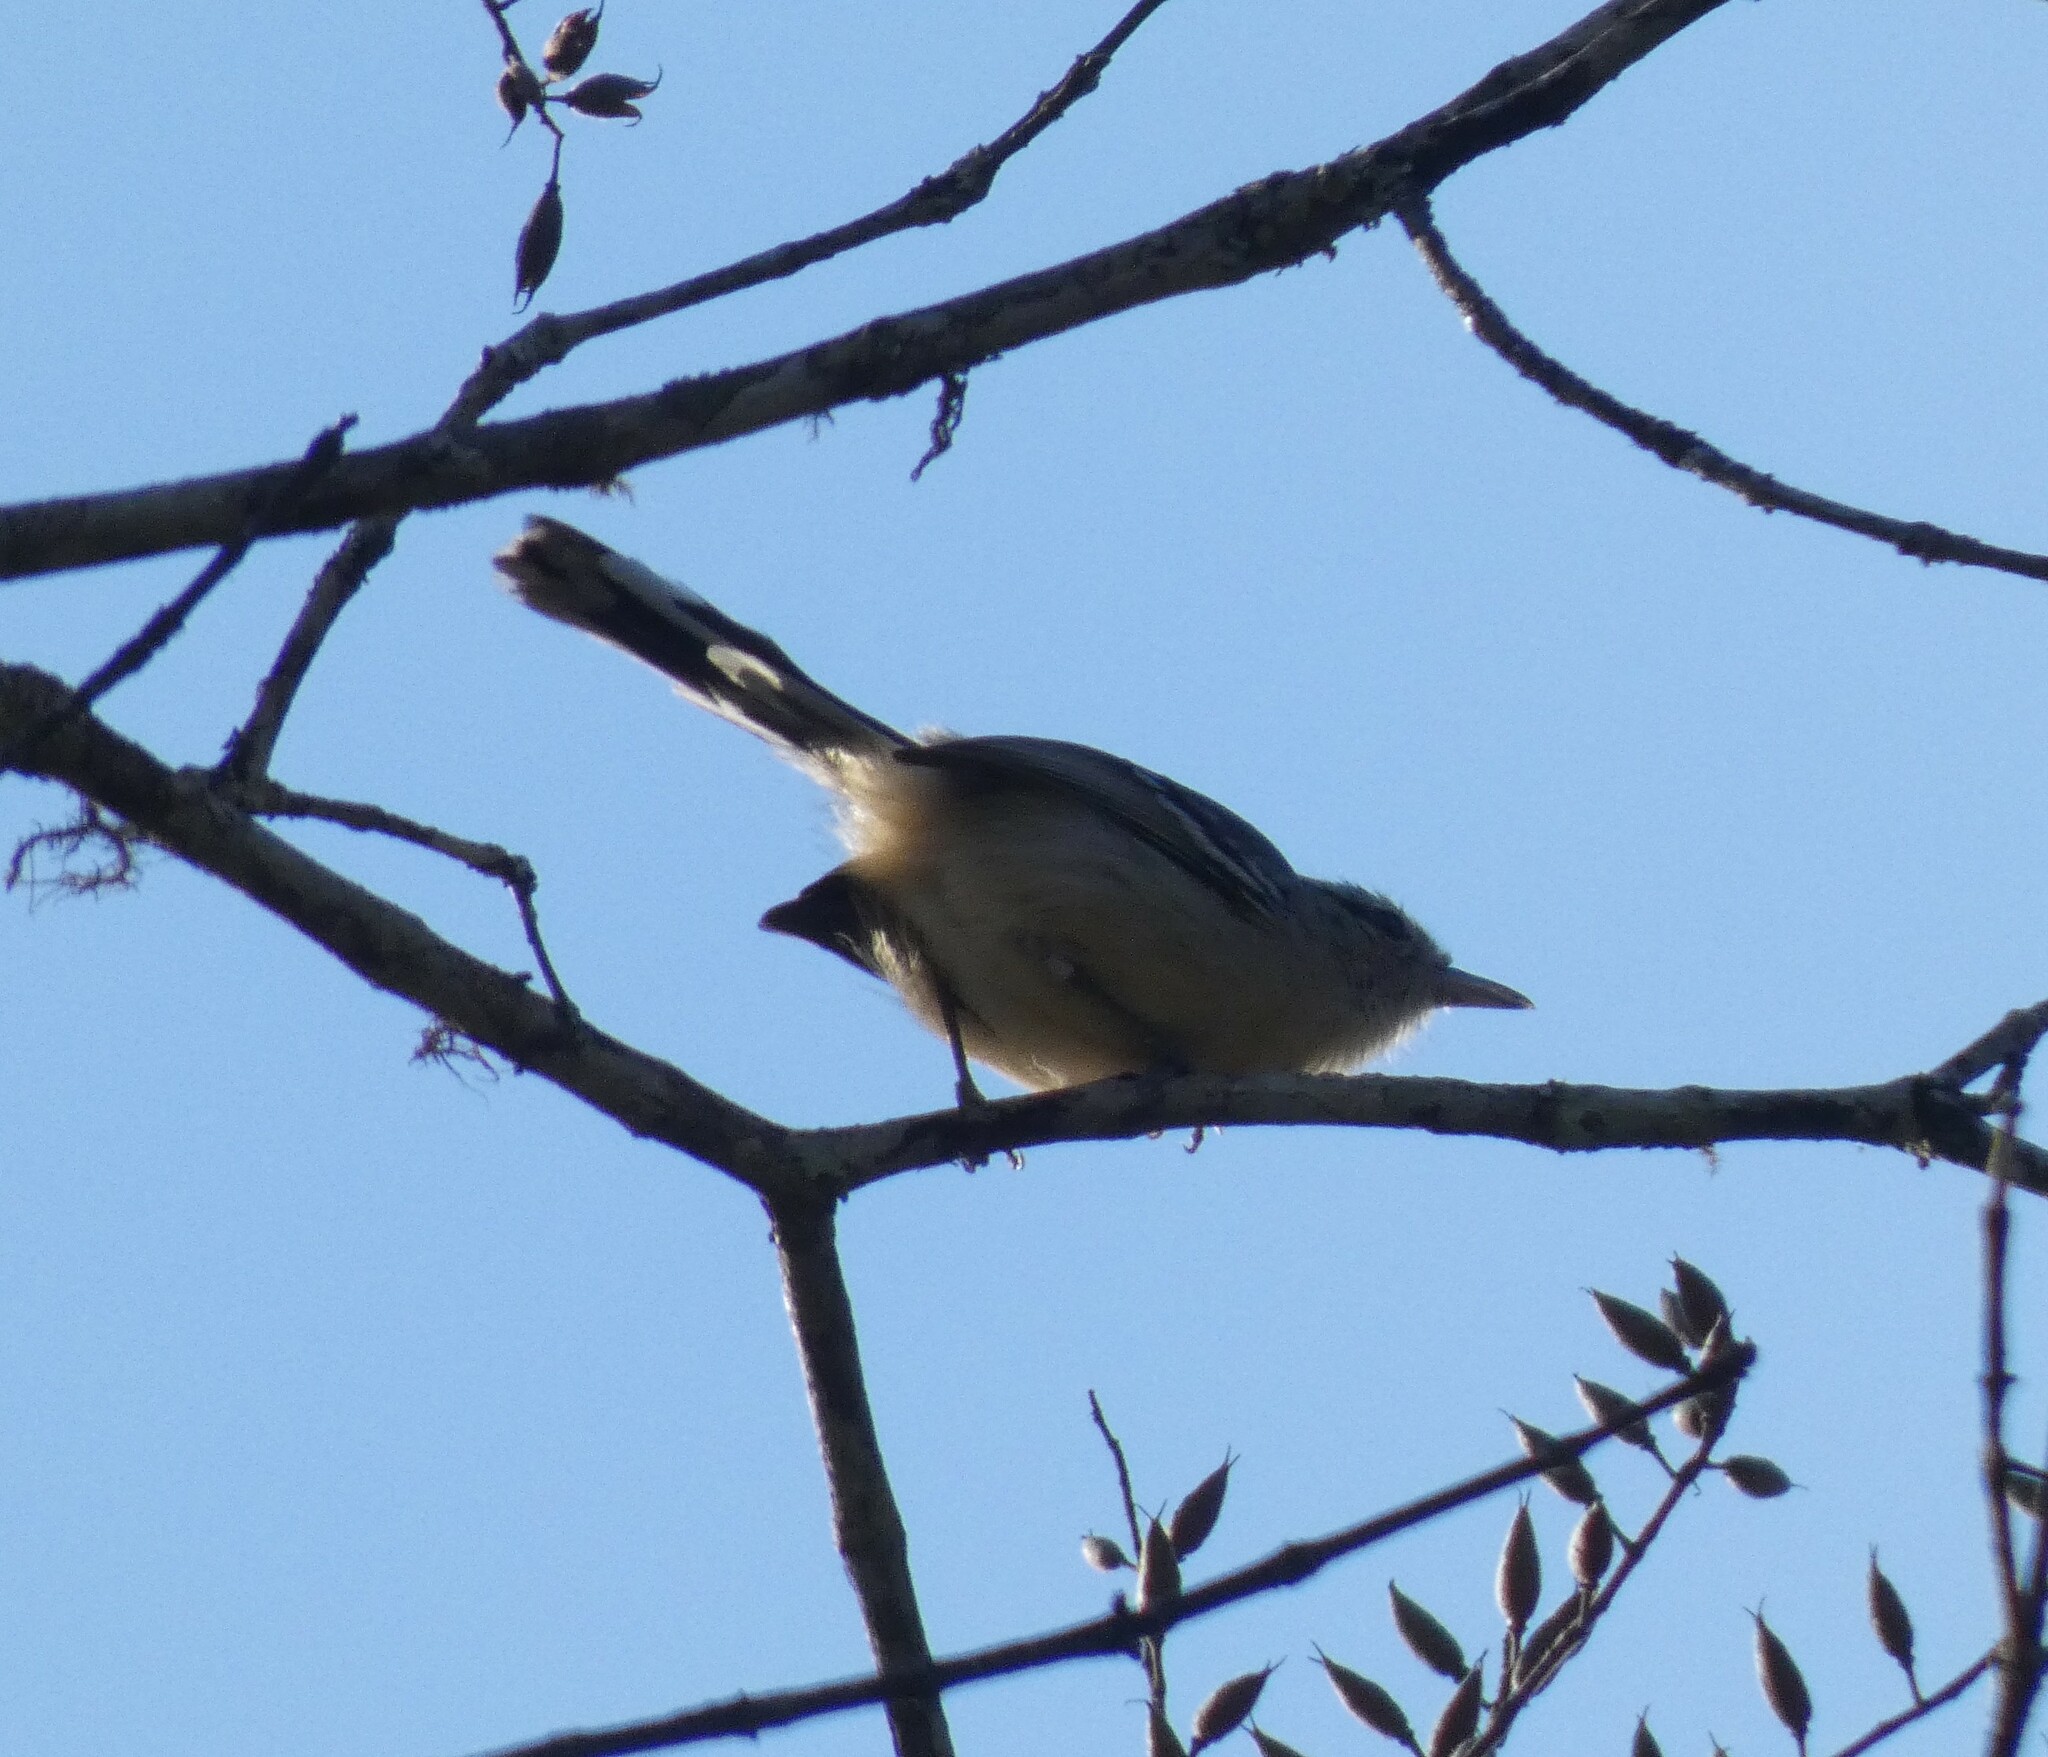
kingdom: Animalia
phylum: Chordata
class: Aves
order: Passeriformes
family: Thamnophilidae
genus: Herpsilochmus
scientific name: Herpsilochmus atricapillus
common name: Black-capped antwren
